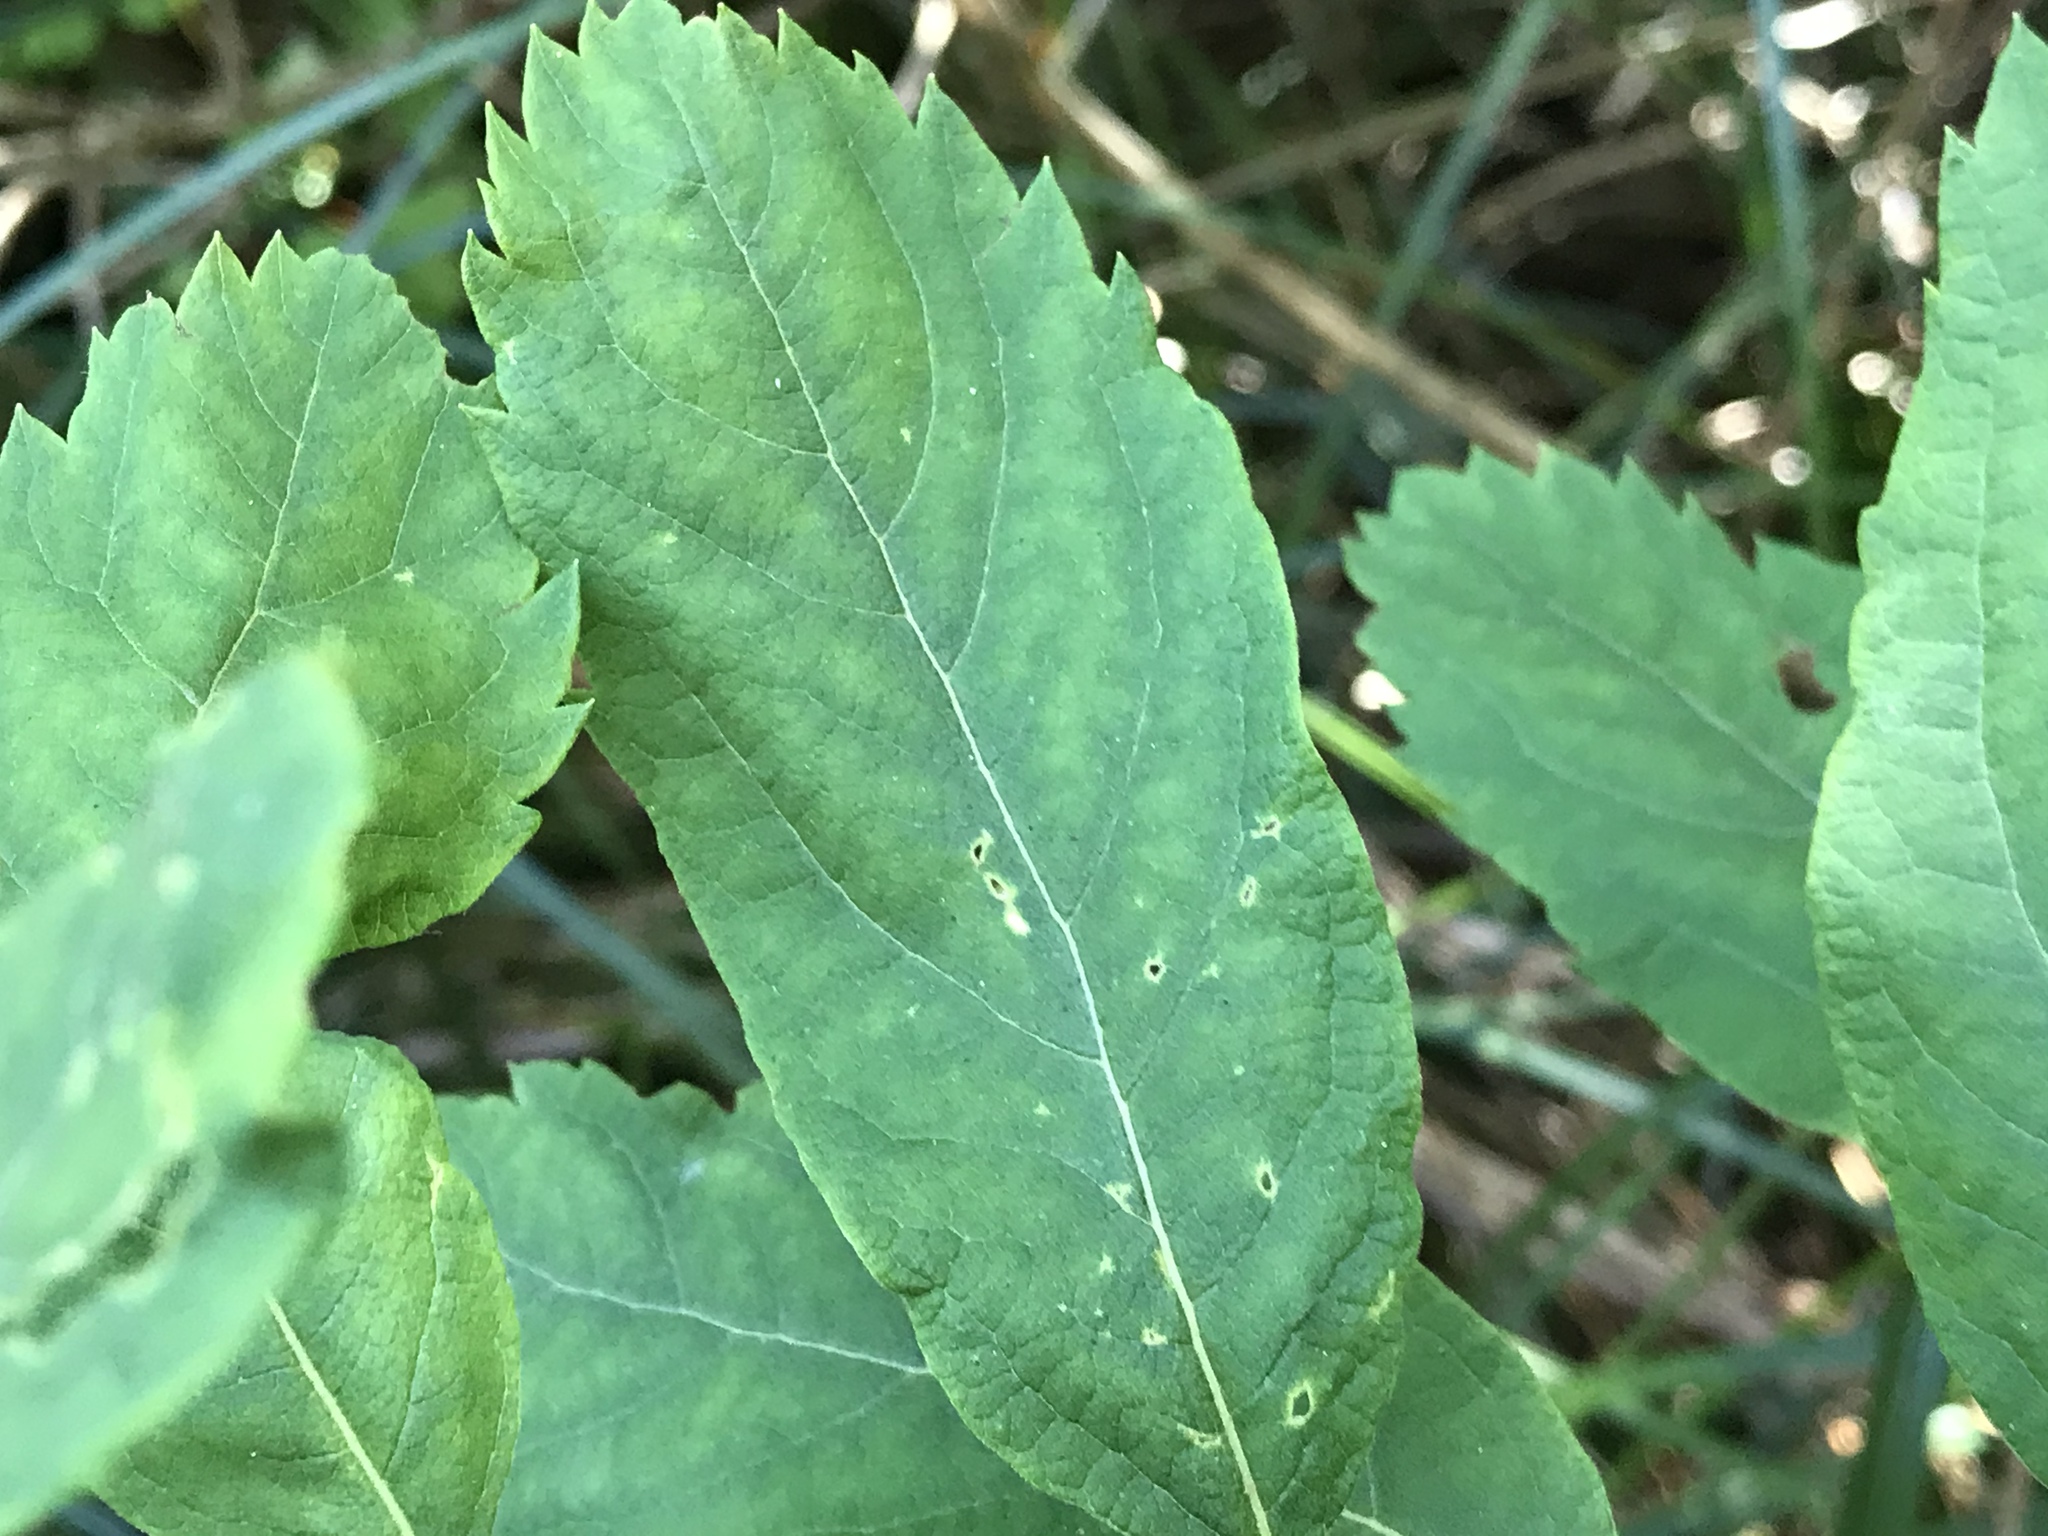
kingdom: Plantae
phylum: Tracheophyta
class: Magnoliopsida
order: Rosales
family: Rosaceae
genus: Spiraea
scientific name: Spiraea douglasii
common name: Steeplebush
